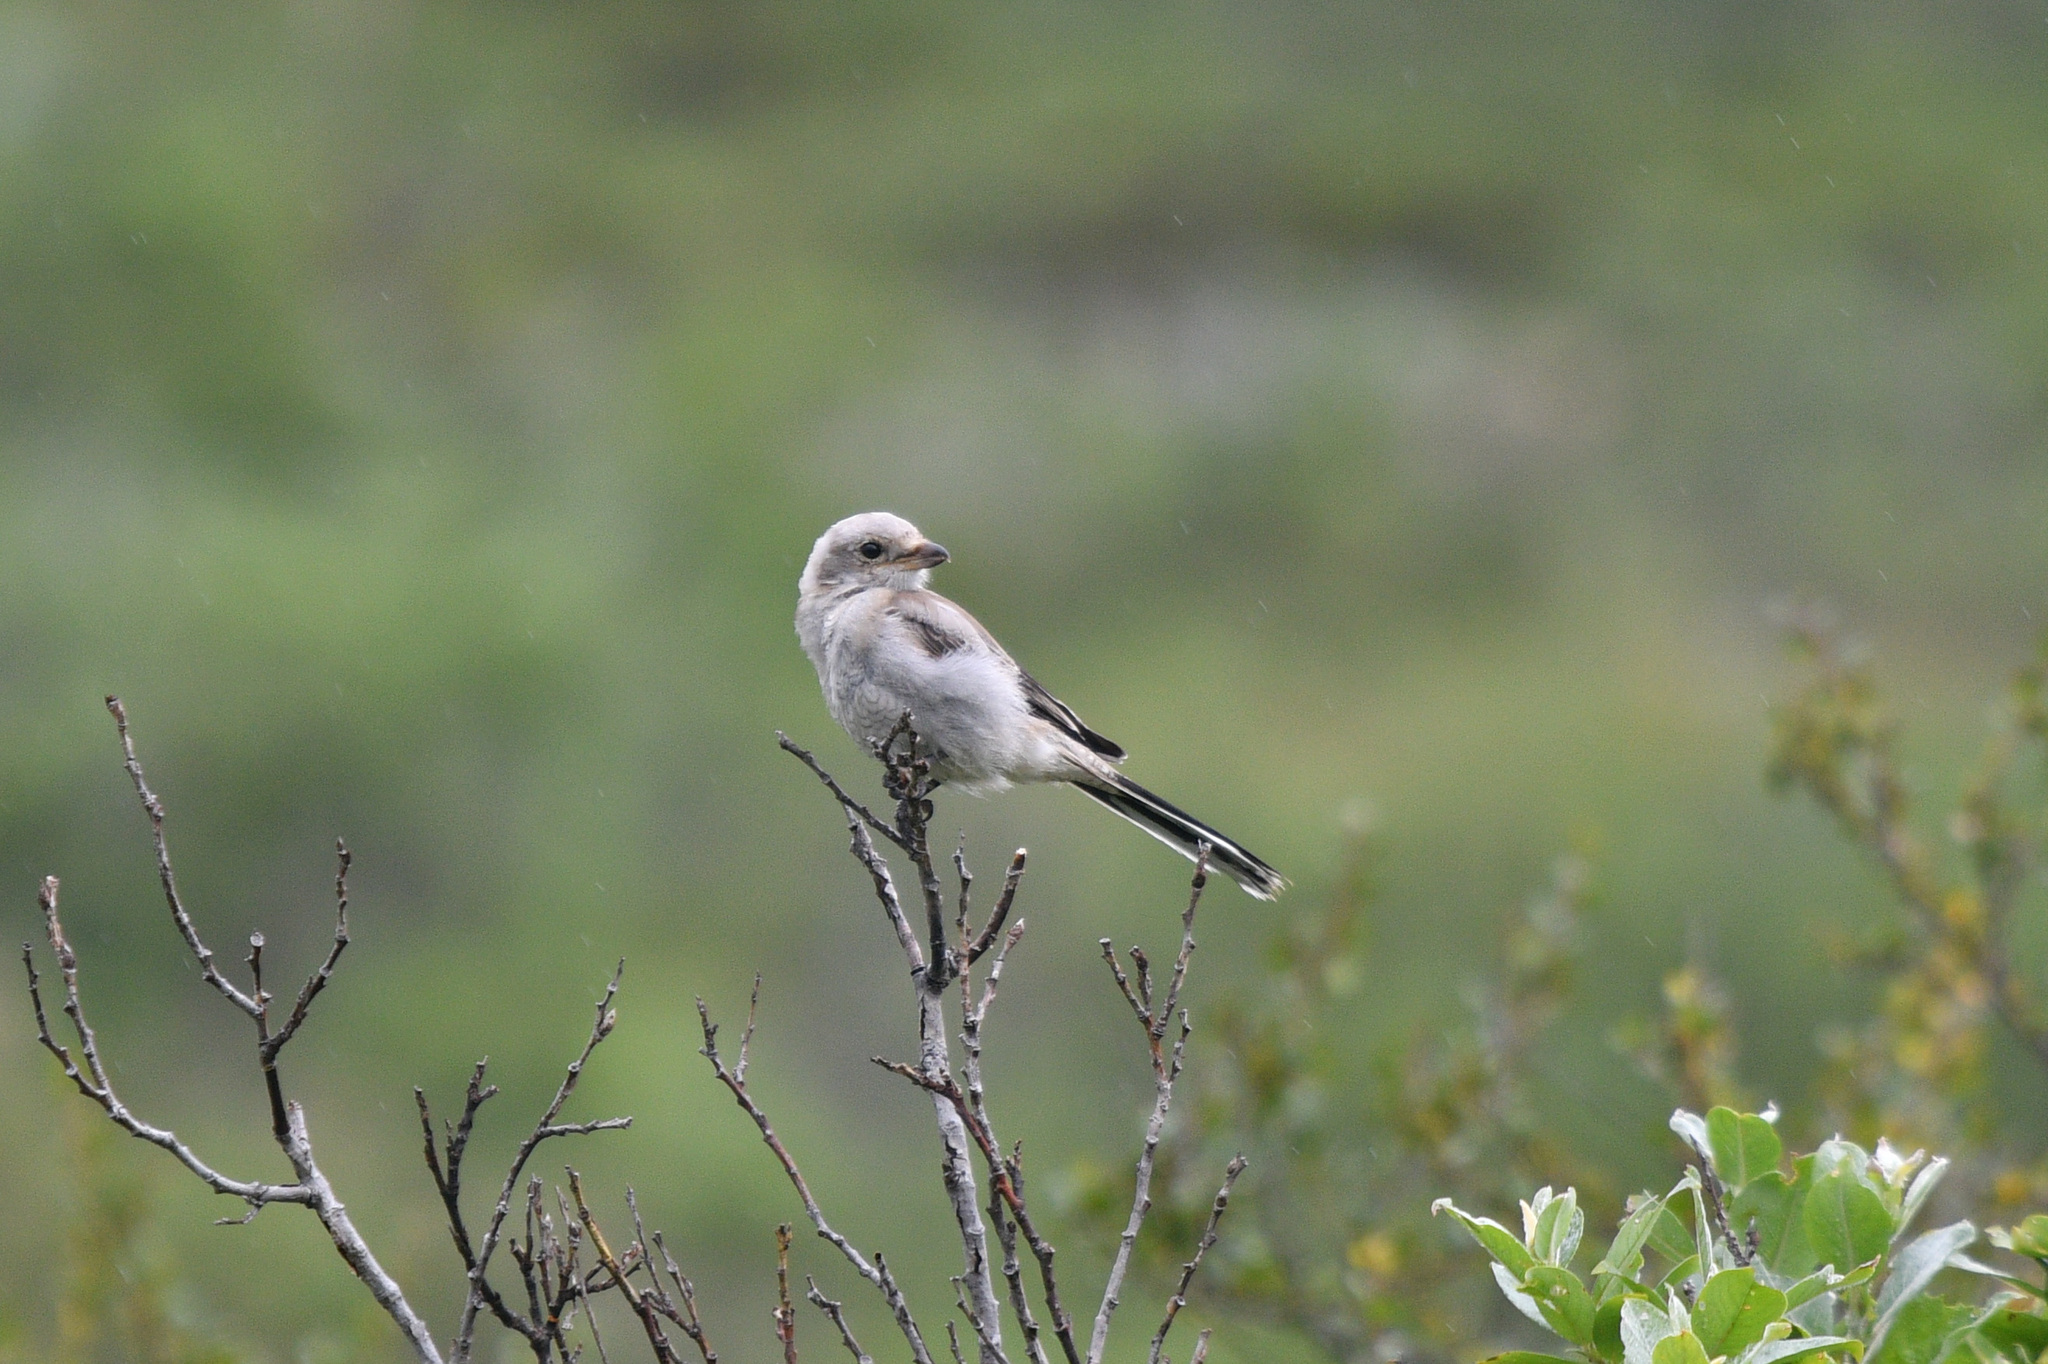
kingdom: Animalia
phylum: Chordata
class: Aves
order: Passeriformes
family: Laniidae
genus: Lanius
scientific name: Lanius borealis
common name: Northern shrike
